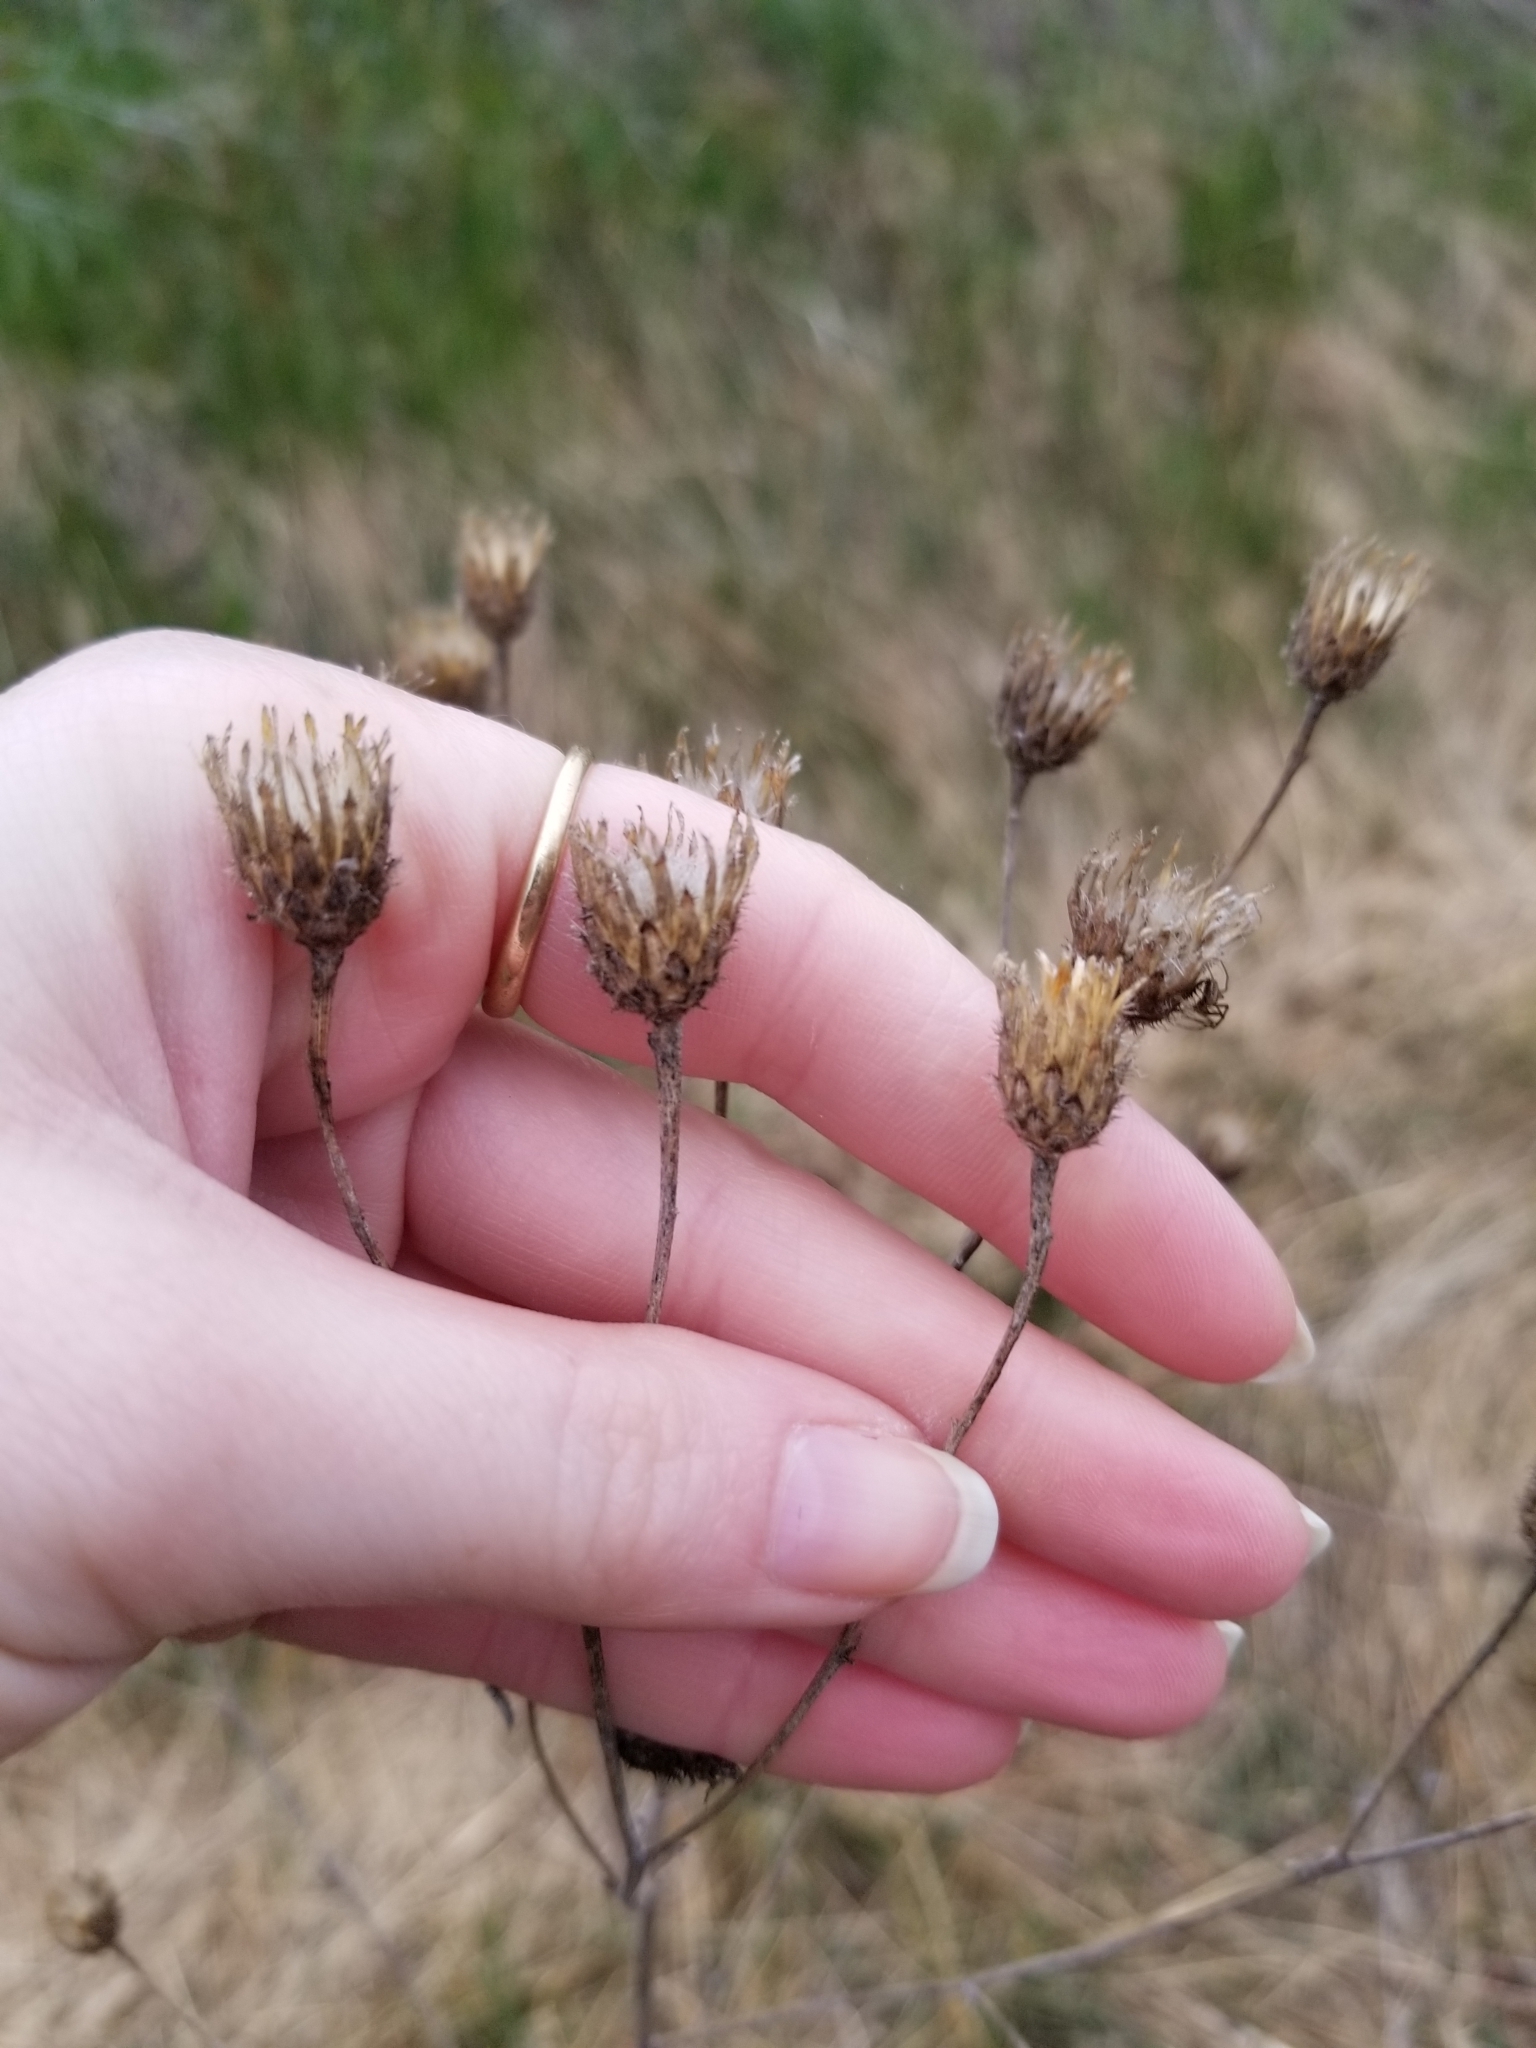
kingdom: Plantae
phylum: Tracheophyta
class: Magnoliopsida
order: Asterales
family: Asteraceae
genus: Centaurea
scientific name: Centaurea stoebe
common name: Spotted knapweed
